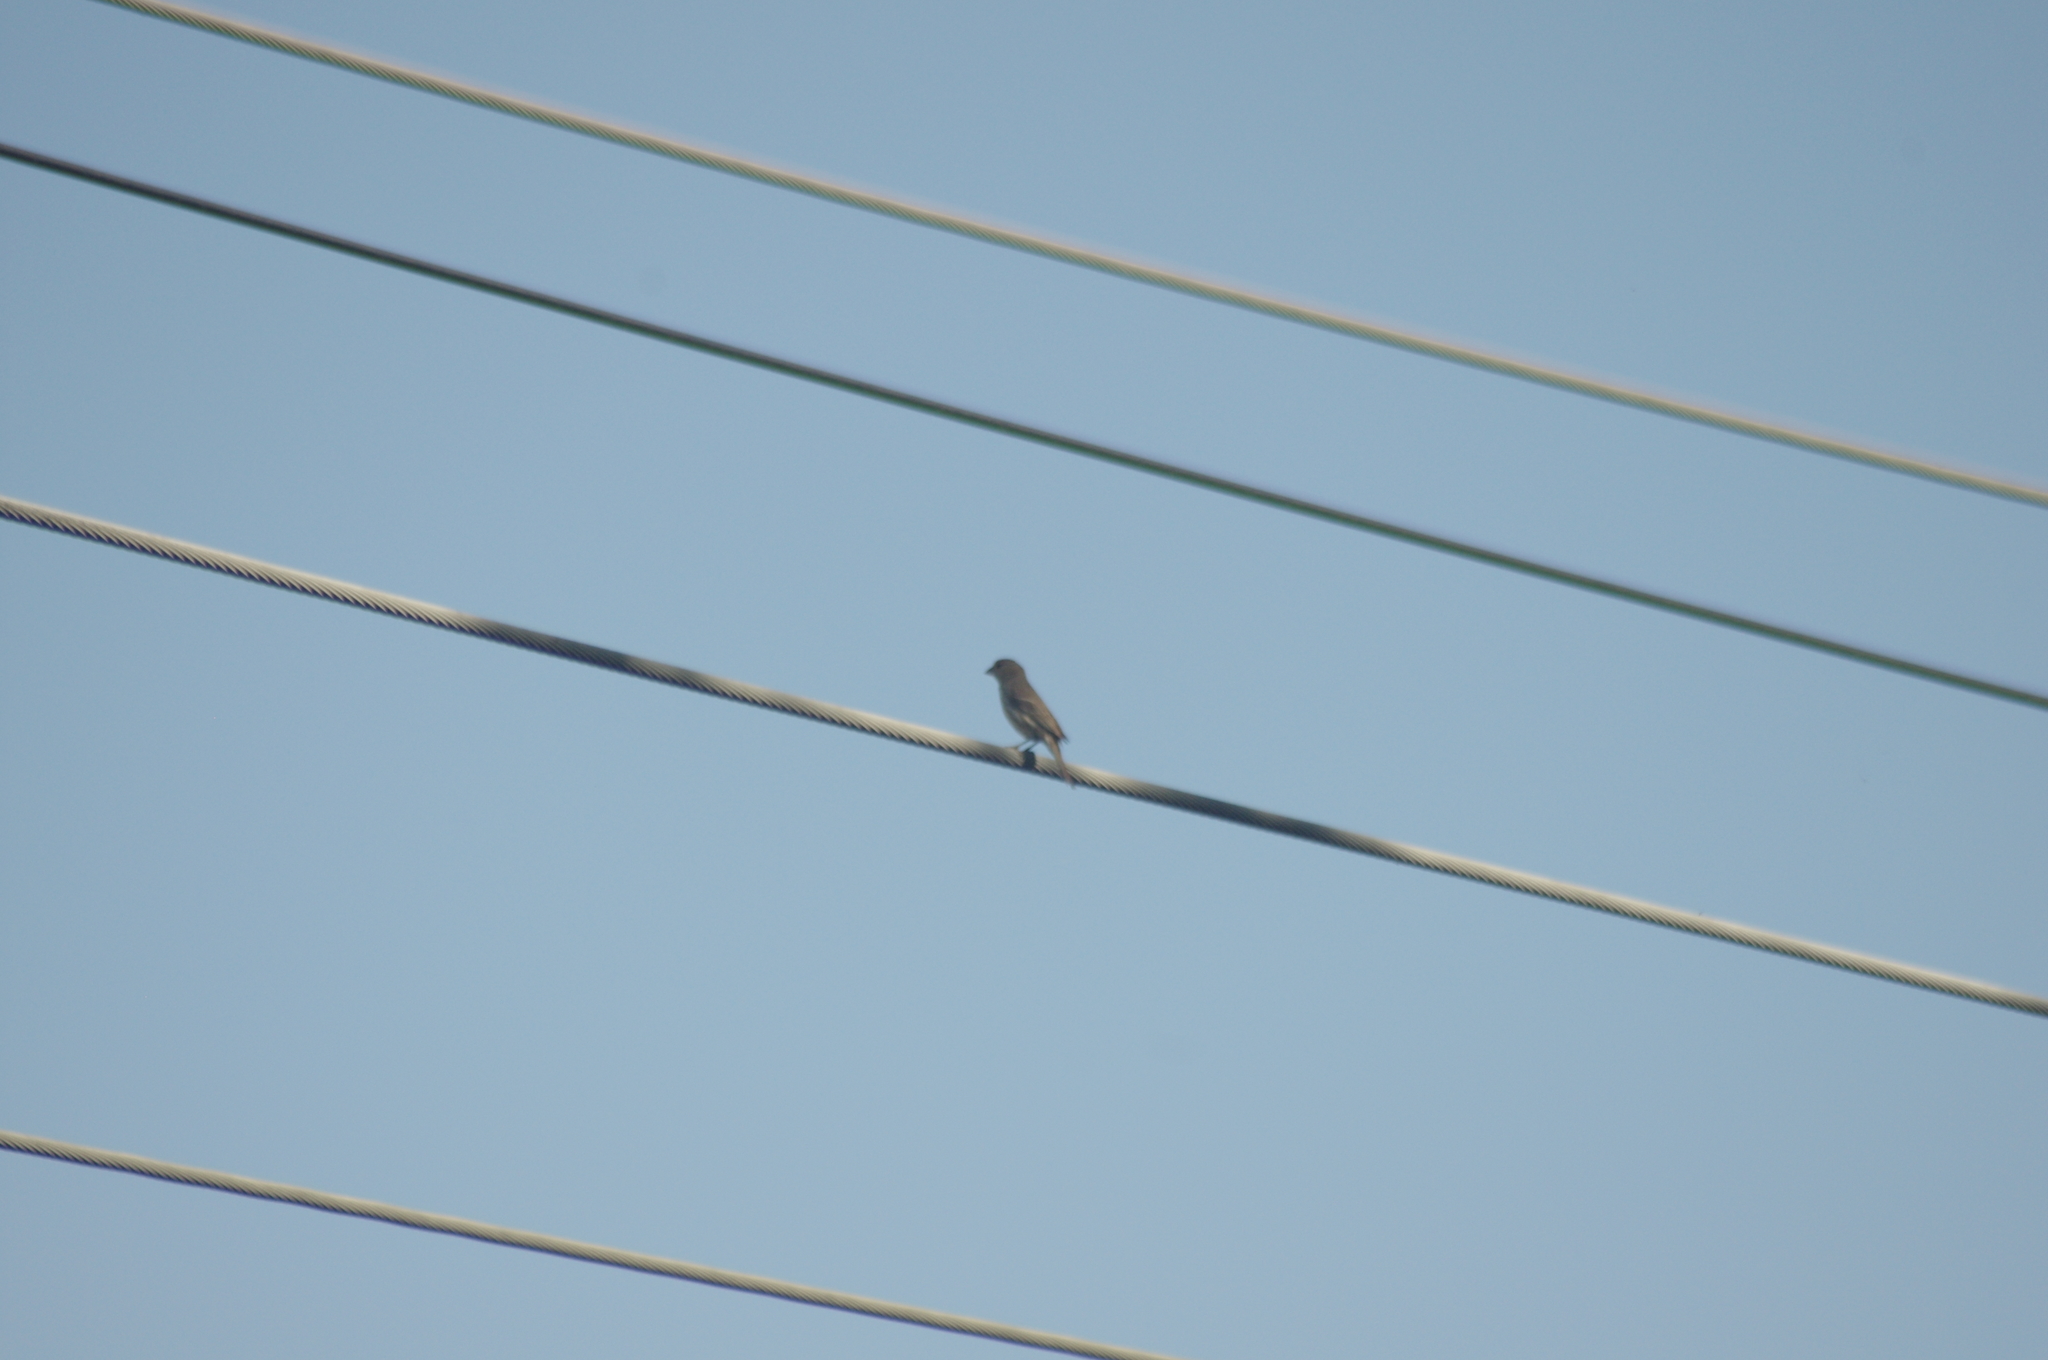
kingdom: Animalia
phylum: Chordata
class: Aves
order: Passeriformes
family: Fringillidae
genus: Haemorhous
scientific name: Haemorhous mexicanus
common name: House finch
